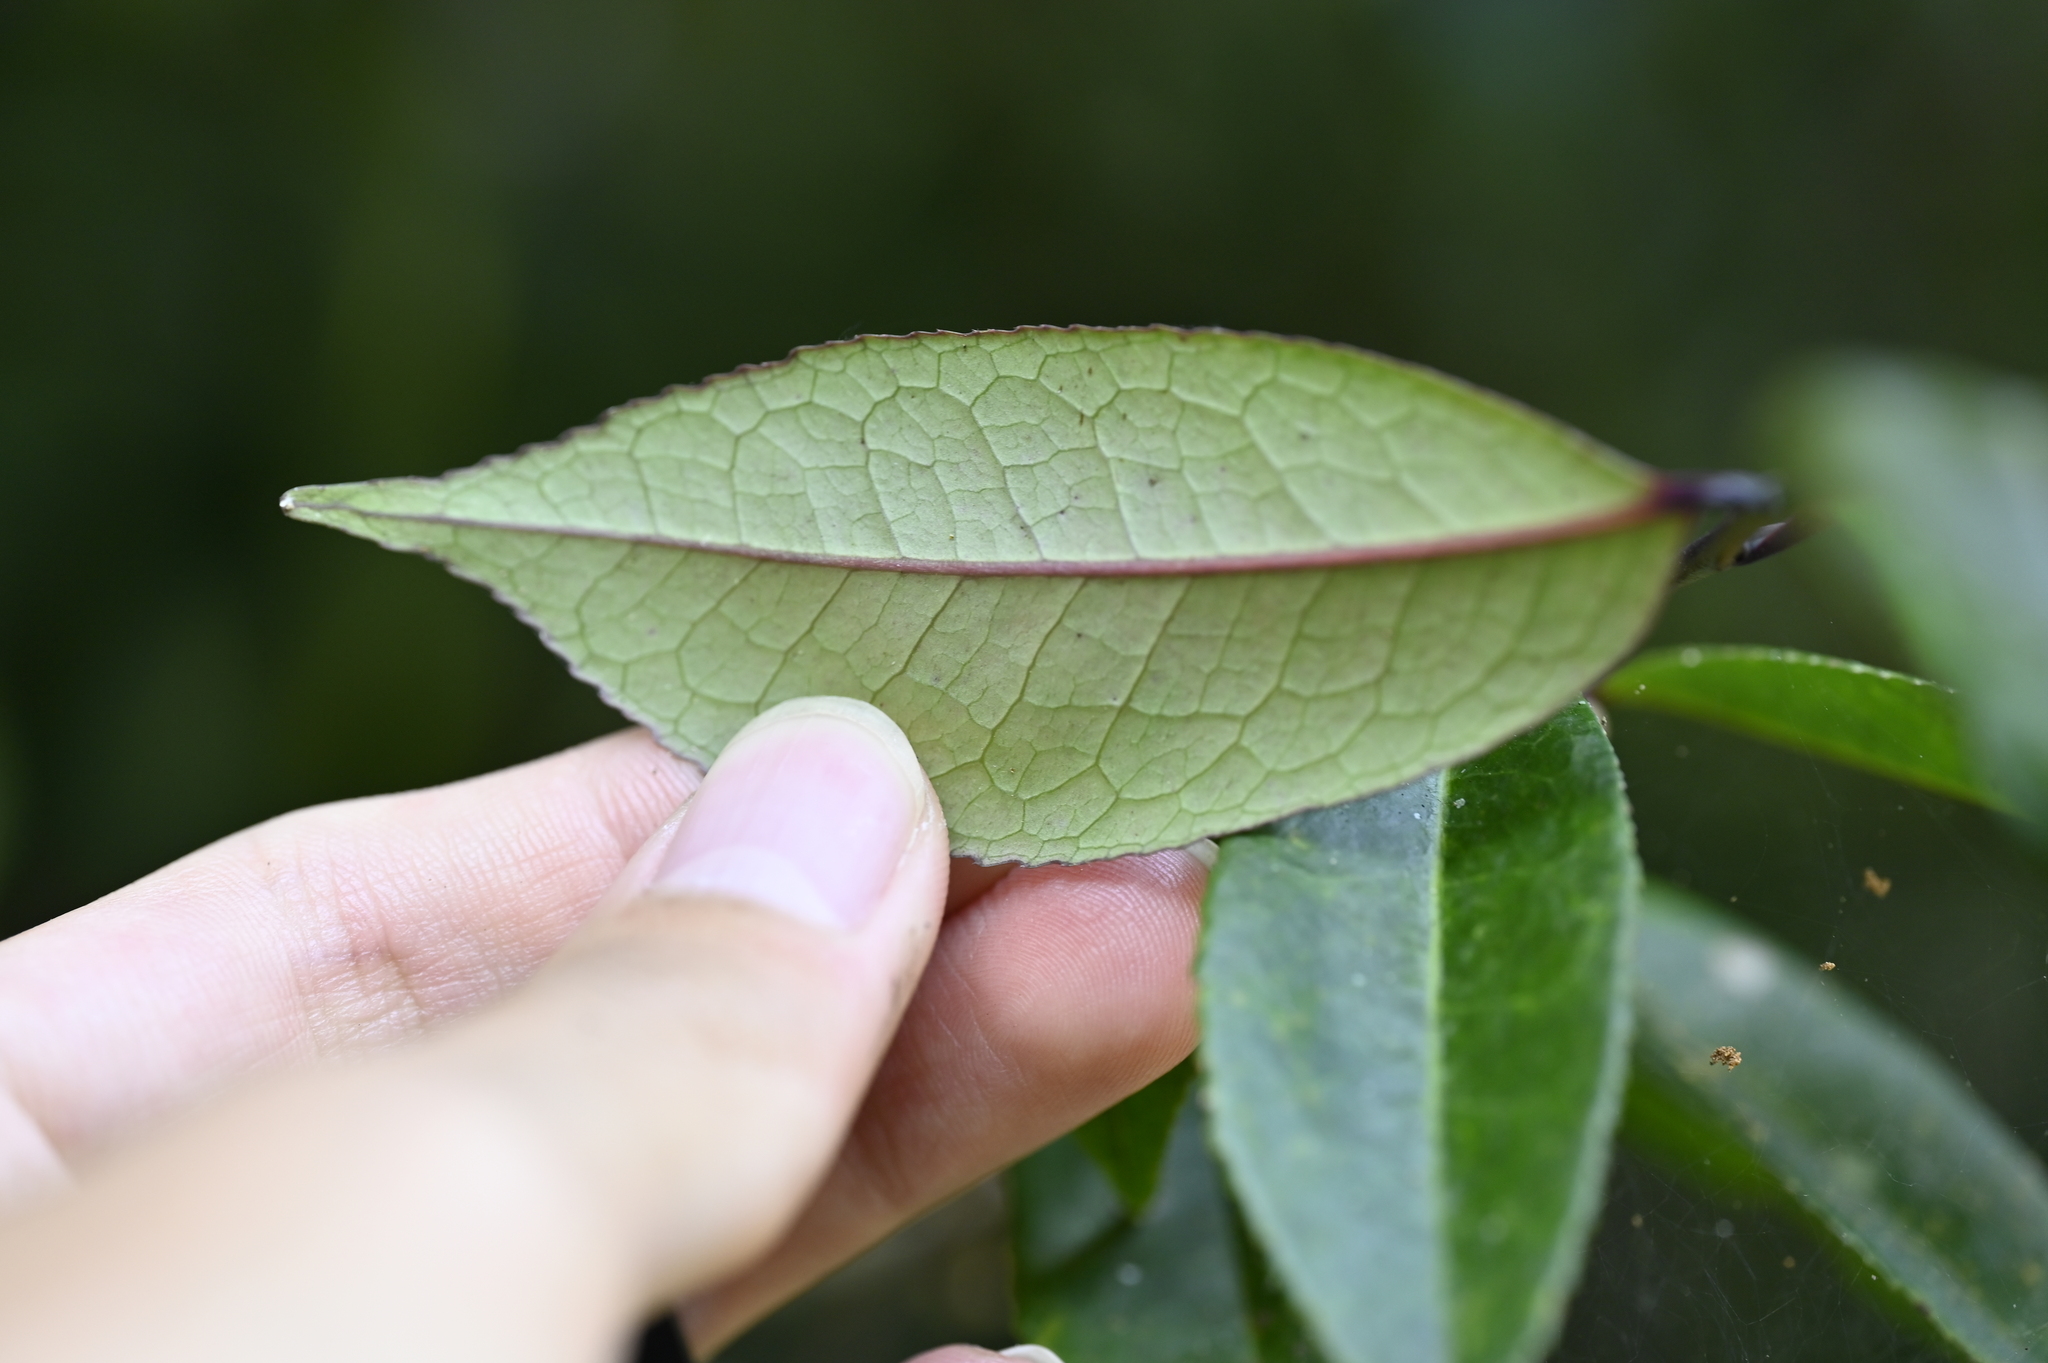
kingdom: Plantae
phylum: Tracheophyta
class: Magnoliopsida
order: Ericales
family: Pentaphylacaceae
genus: Eurya
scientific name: Eurya rengechiensis
